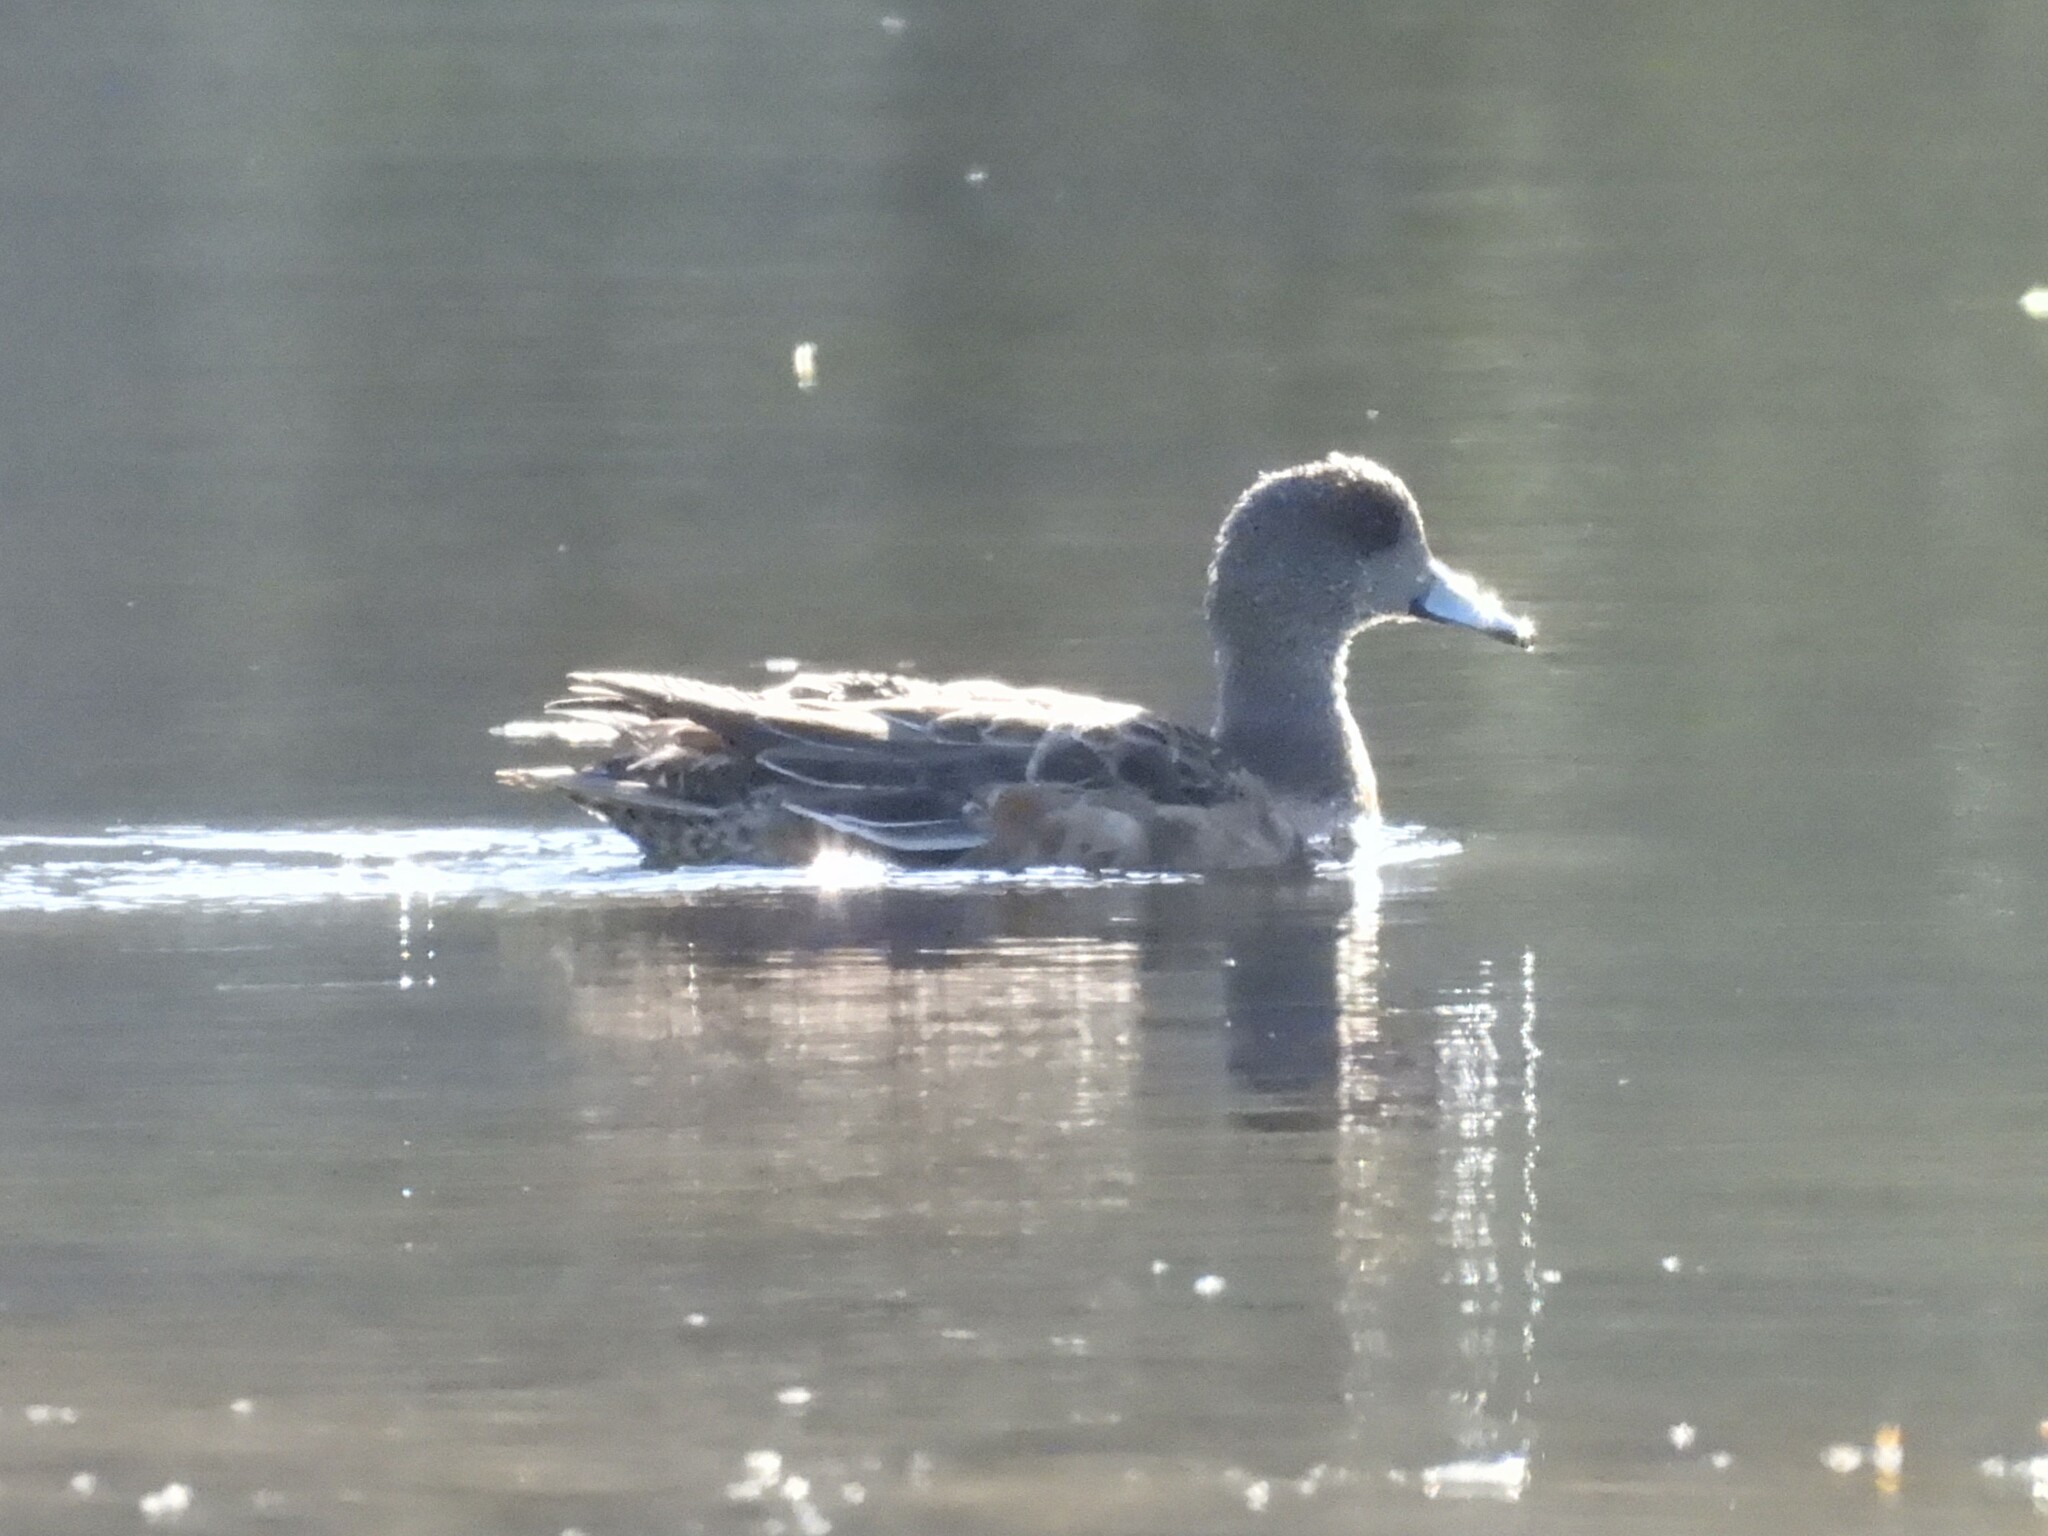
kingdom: Animalia
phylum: Chordata
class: Aves
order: Anseriformes
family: Anatidae
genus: Mareca
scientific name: Mareca americana
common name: American wigeon
